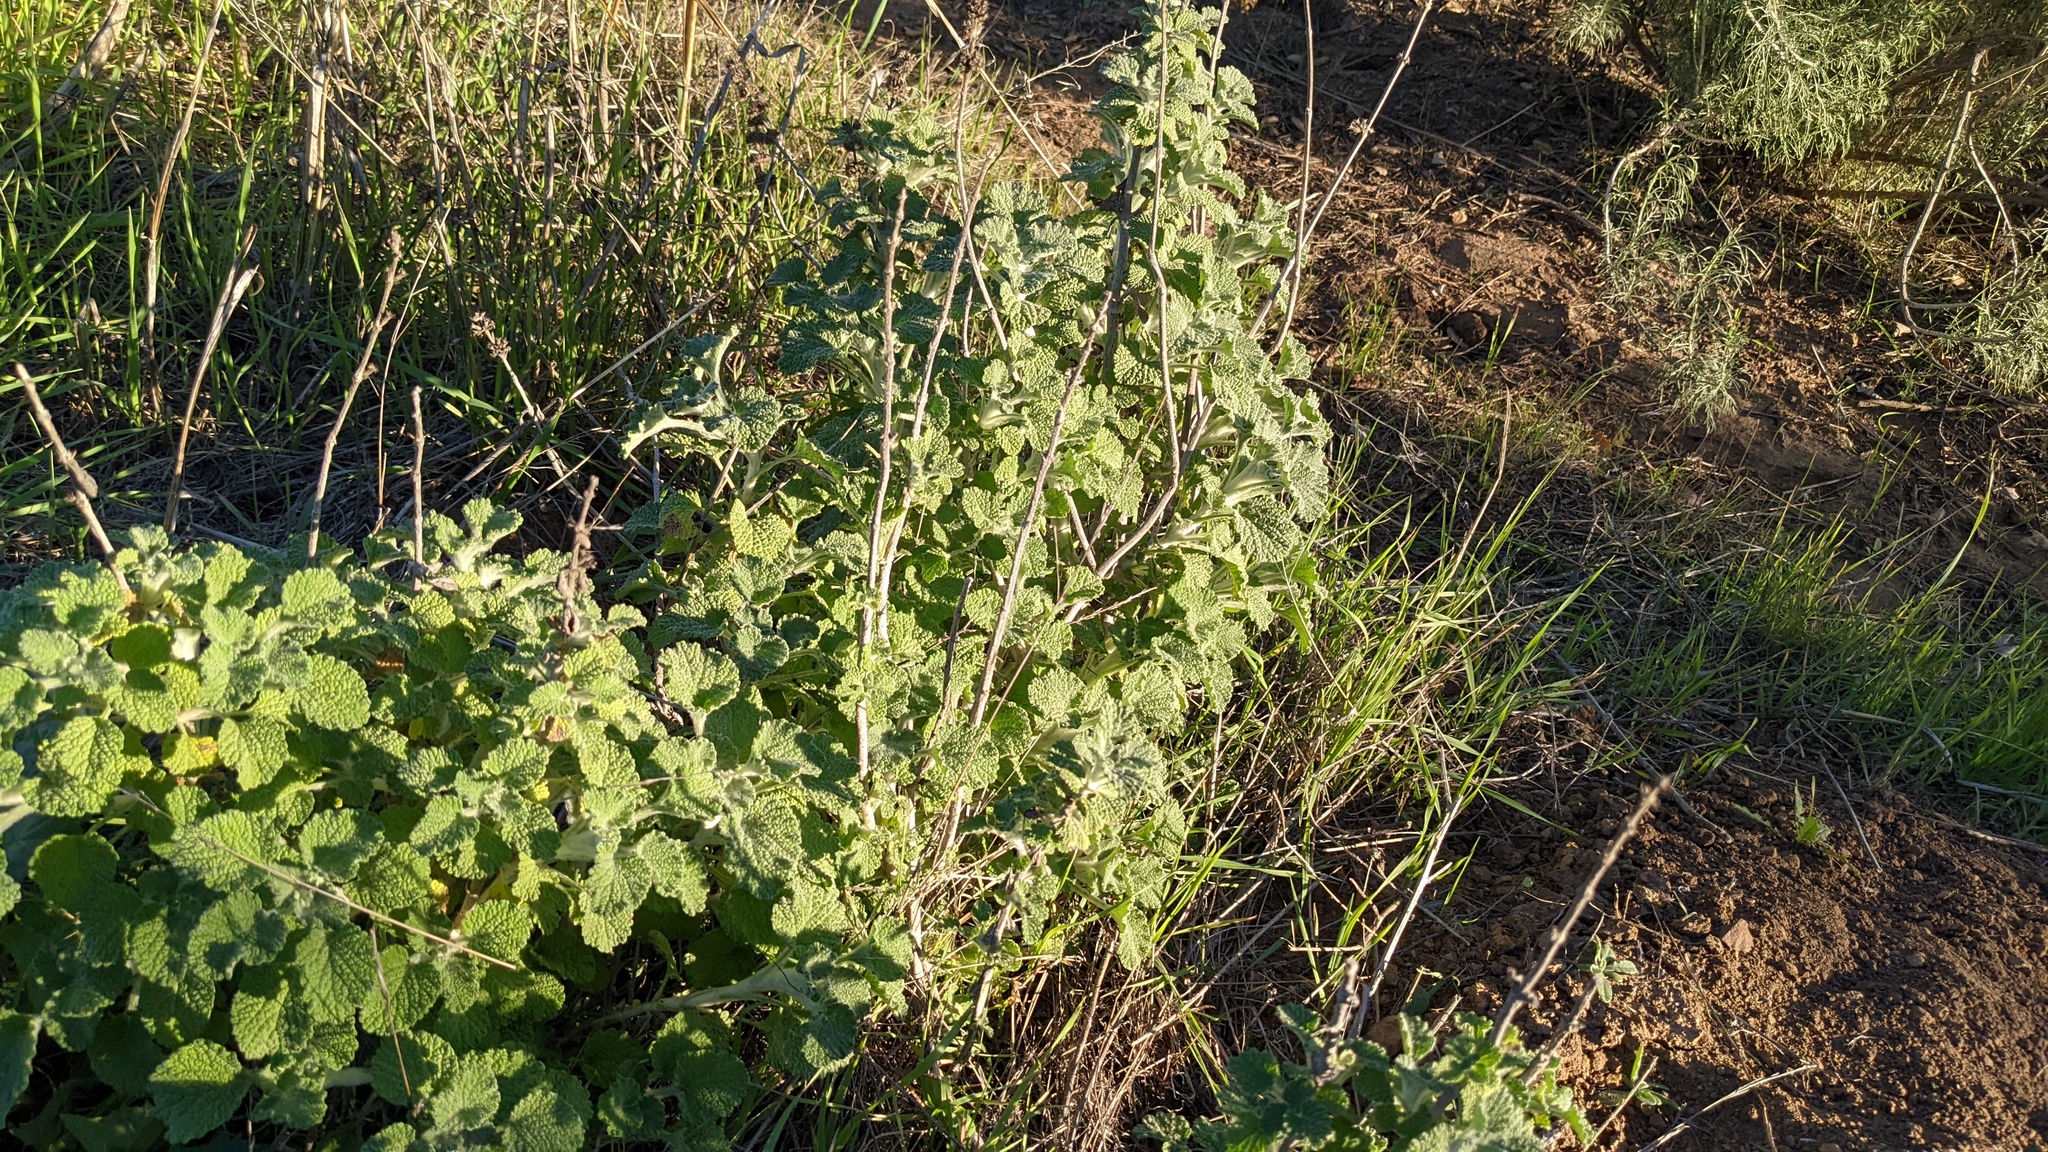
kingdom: Plantae
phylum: Tracheophyta
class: Magnoliopsida
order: Lamiales
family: Lamiaceae
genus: Marrubium
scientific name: Marrubium vulgare
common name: Horehound
